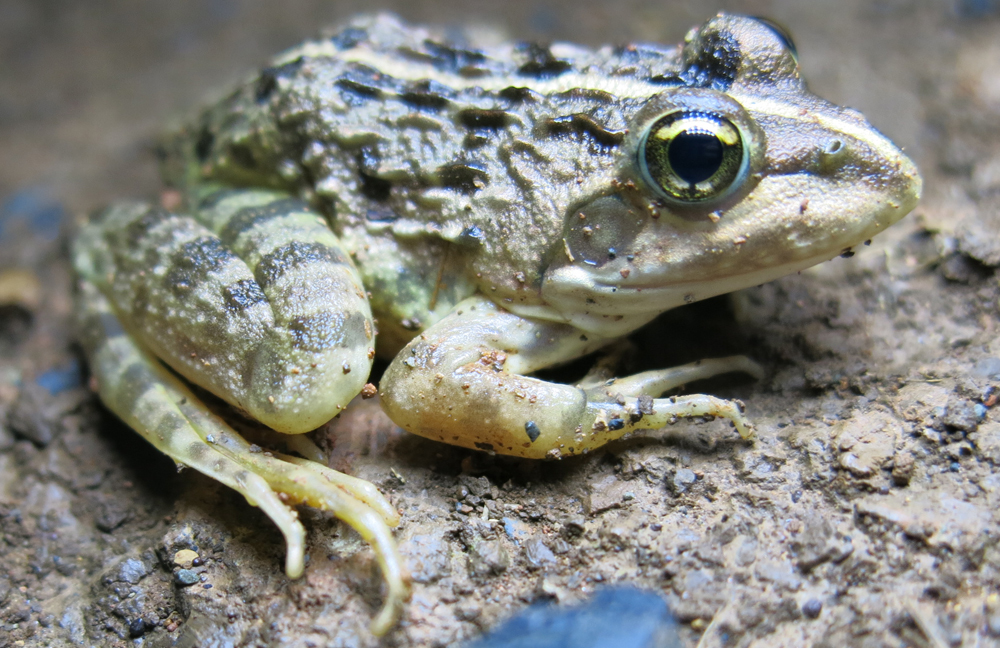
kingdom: Animalia
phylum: Chordata
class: Amphibia
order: Anura
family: Pyxicephalidae
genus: Amietia
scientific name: Amietia delalandii
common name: Delalande's river frog
